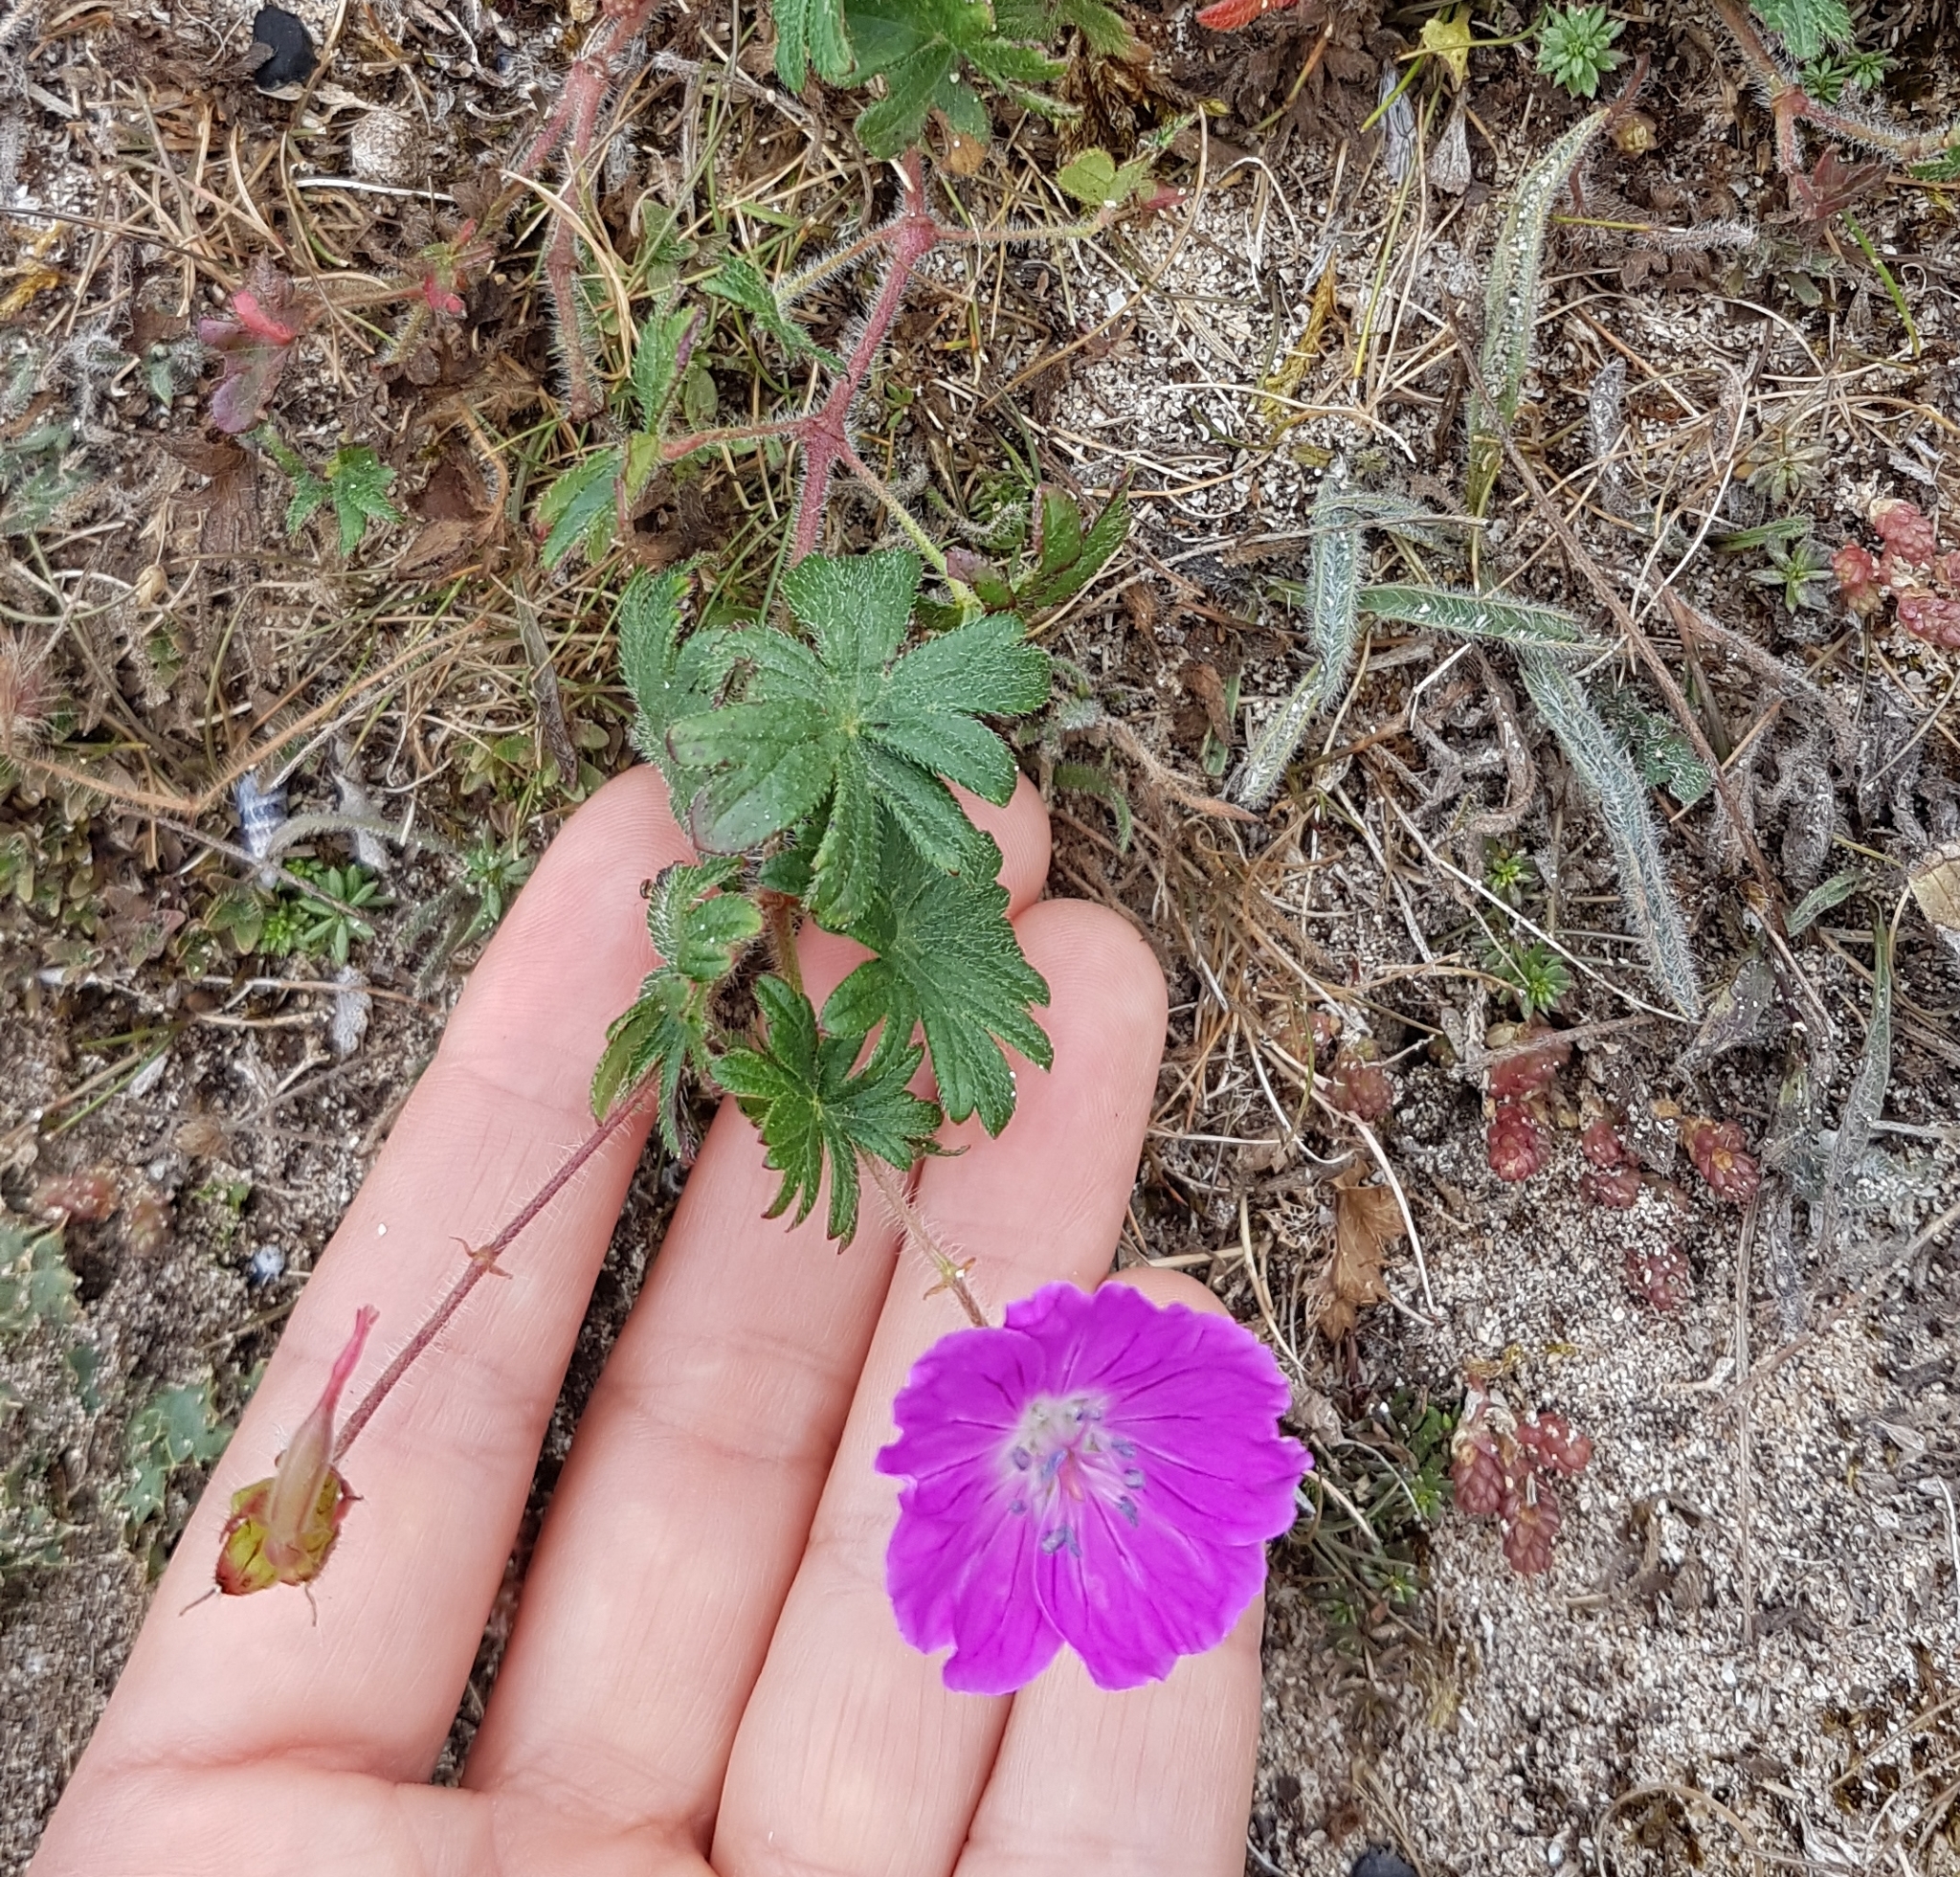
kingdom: Plantae
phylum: Tracheophyta
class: Magnoliopsida
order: Geraniales
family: Geraniaceae
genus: Geranium
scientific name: Geranium sanguineum
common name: Bloody crane's-bill
